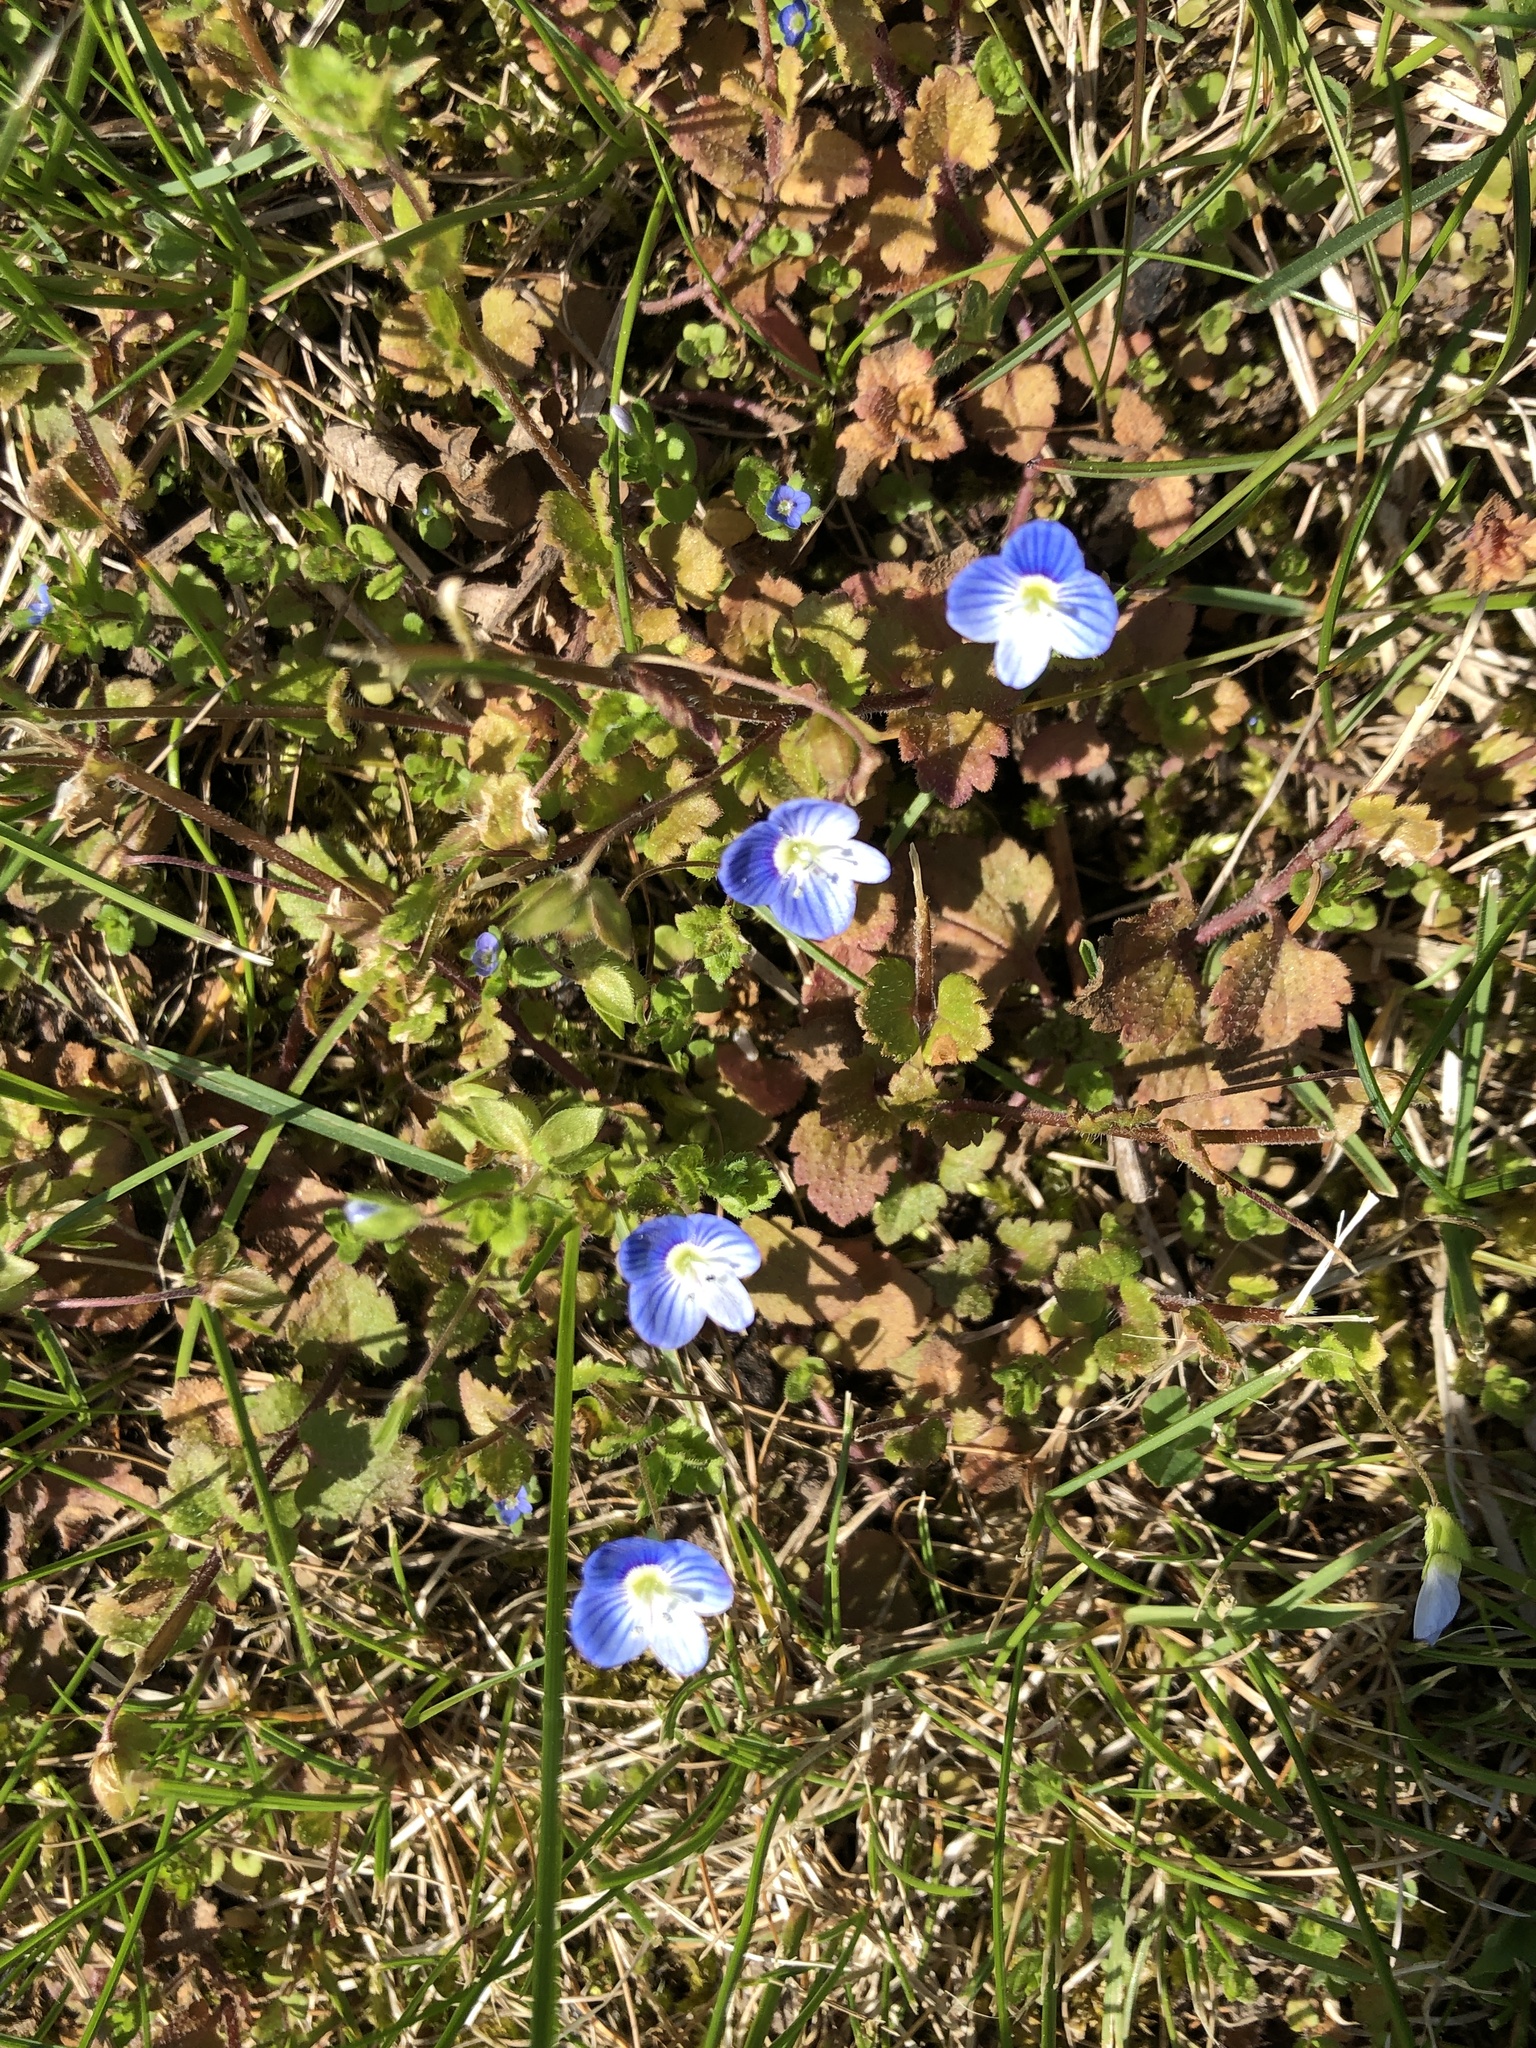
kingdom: Plantae
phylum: Tracheophyta
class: Magnoliopsida
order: Lamiales
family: Plantaginaceae
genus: Veronica
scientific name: Veronica persica
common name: Common field-speedwell
